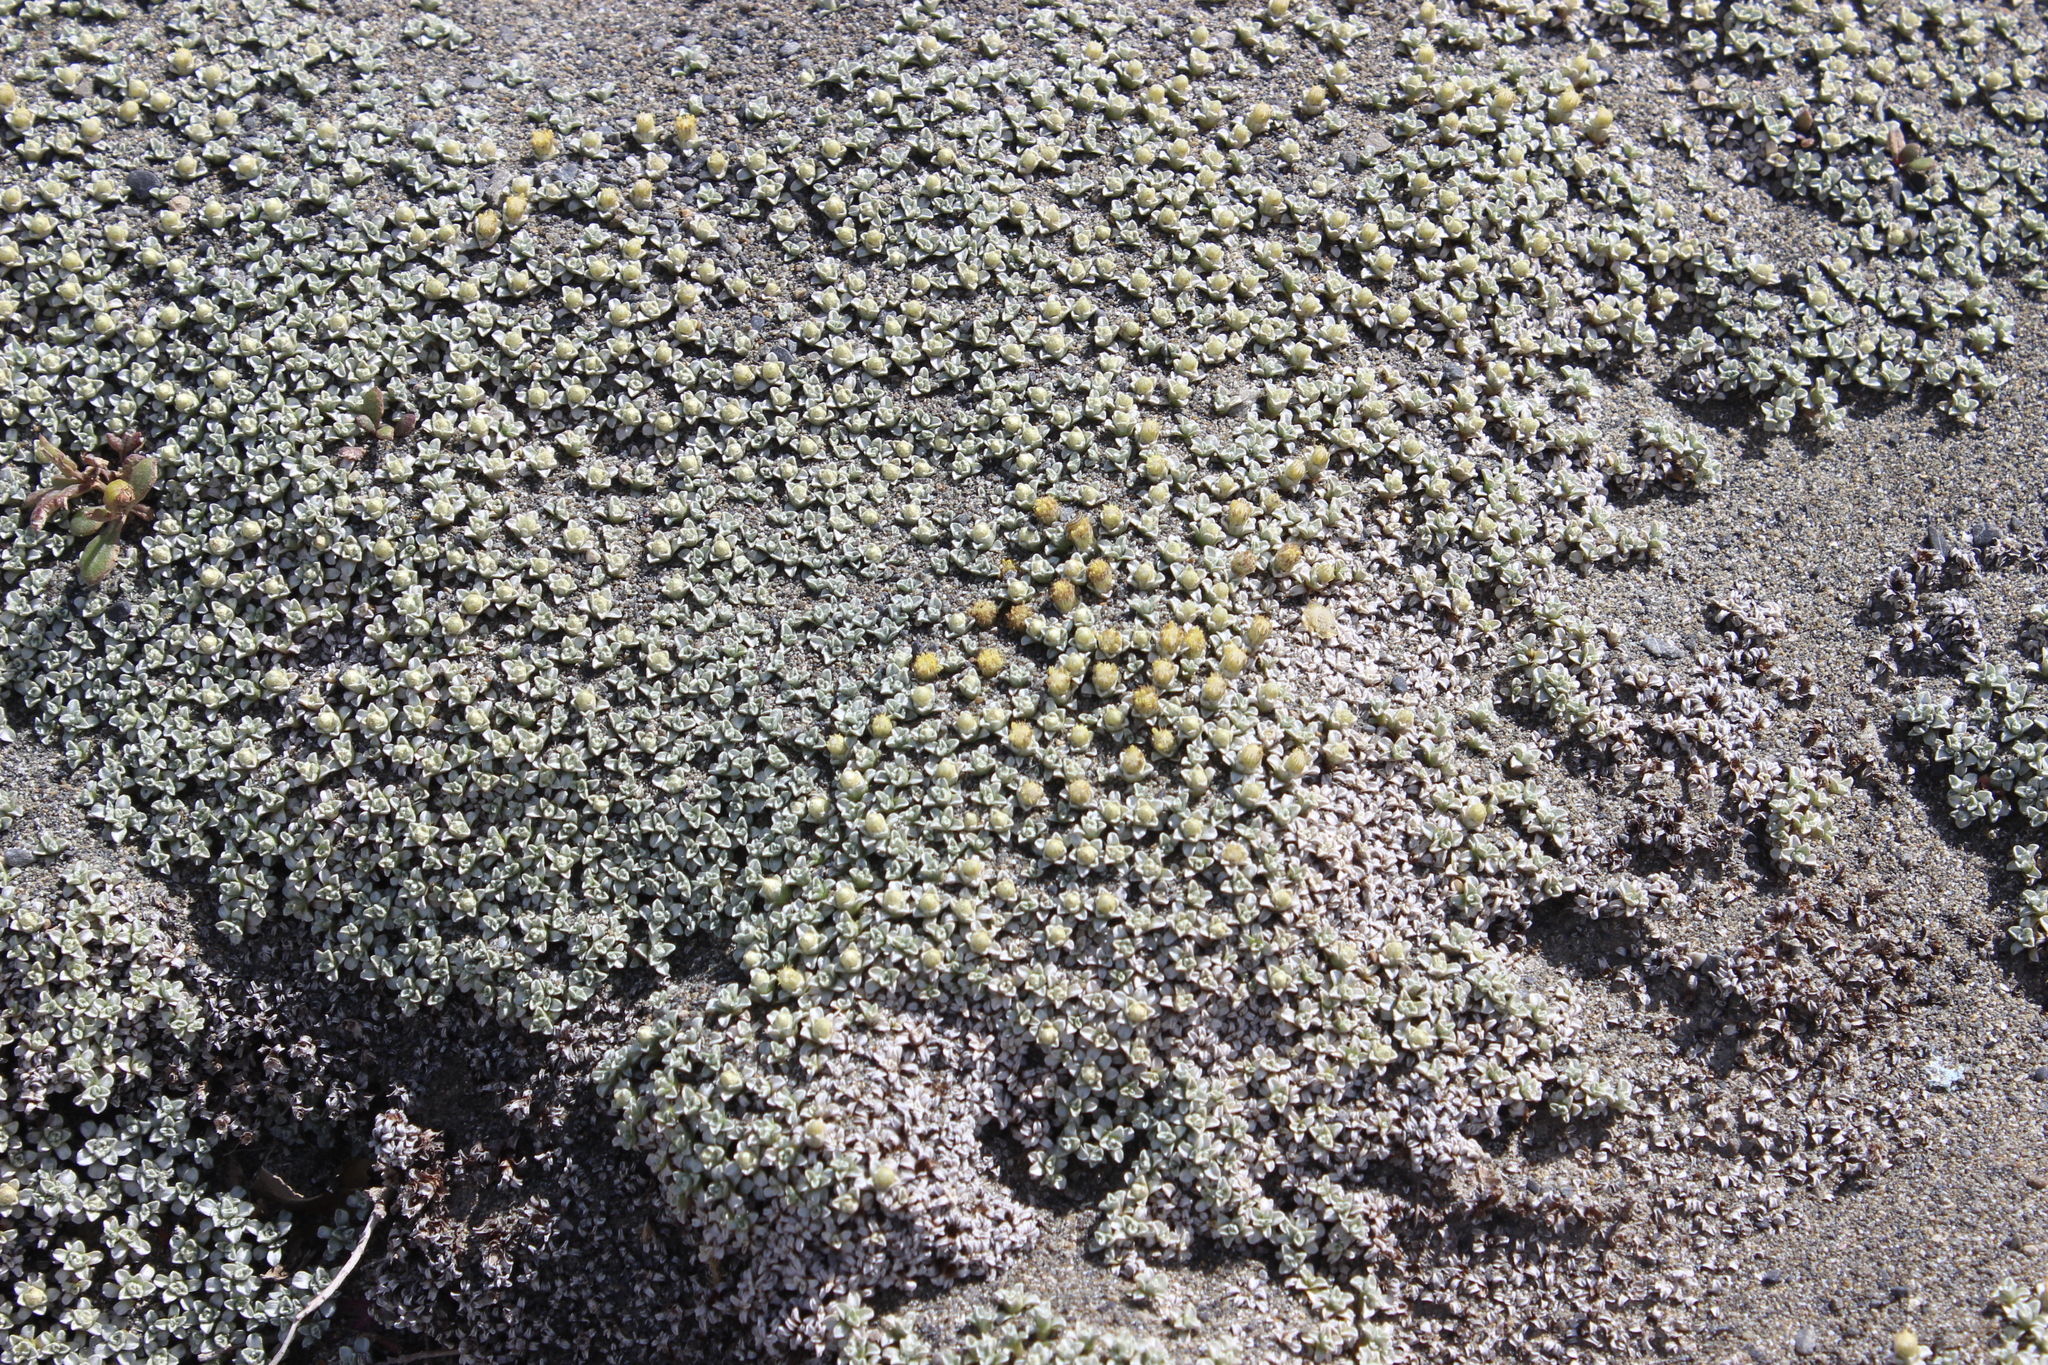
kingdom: Plantae
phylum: Tracheophyta
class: Magnoliopsida
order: Asterales
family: Asteraceae
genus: Raoulia
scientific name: Raoulia hookeri
